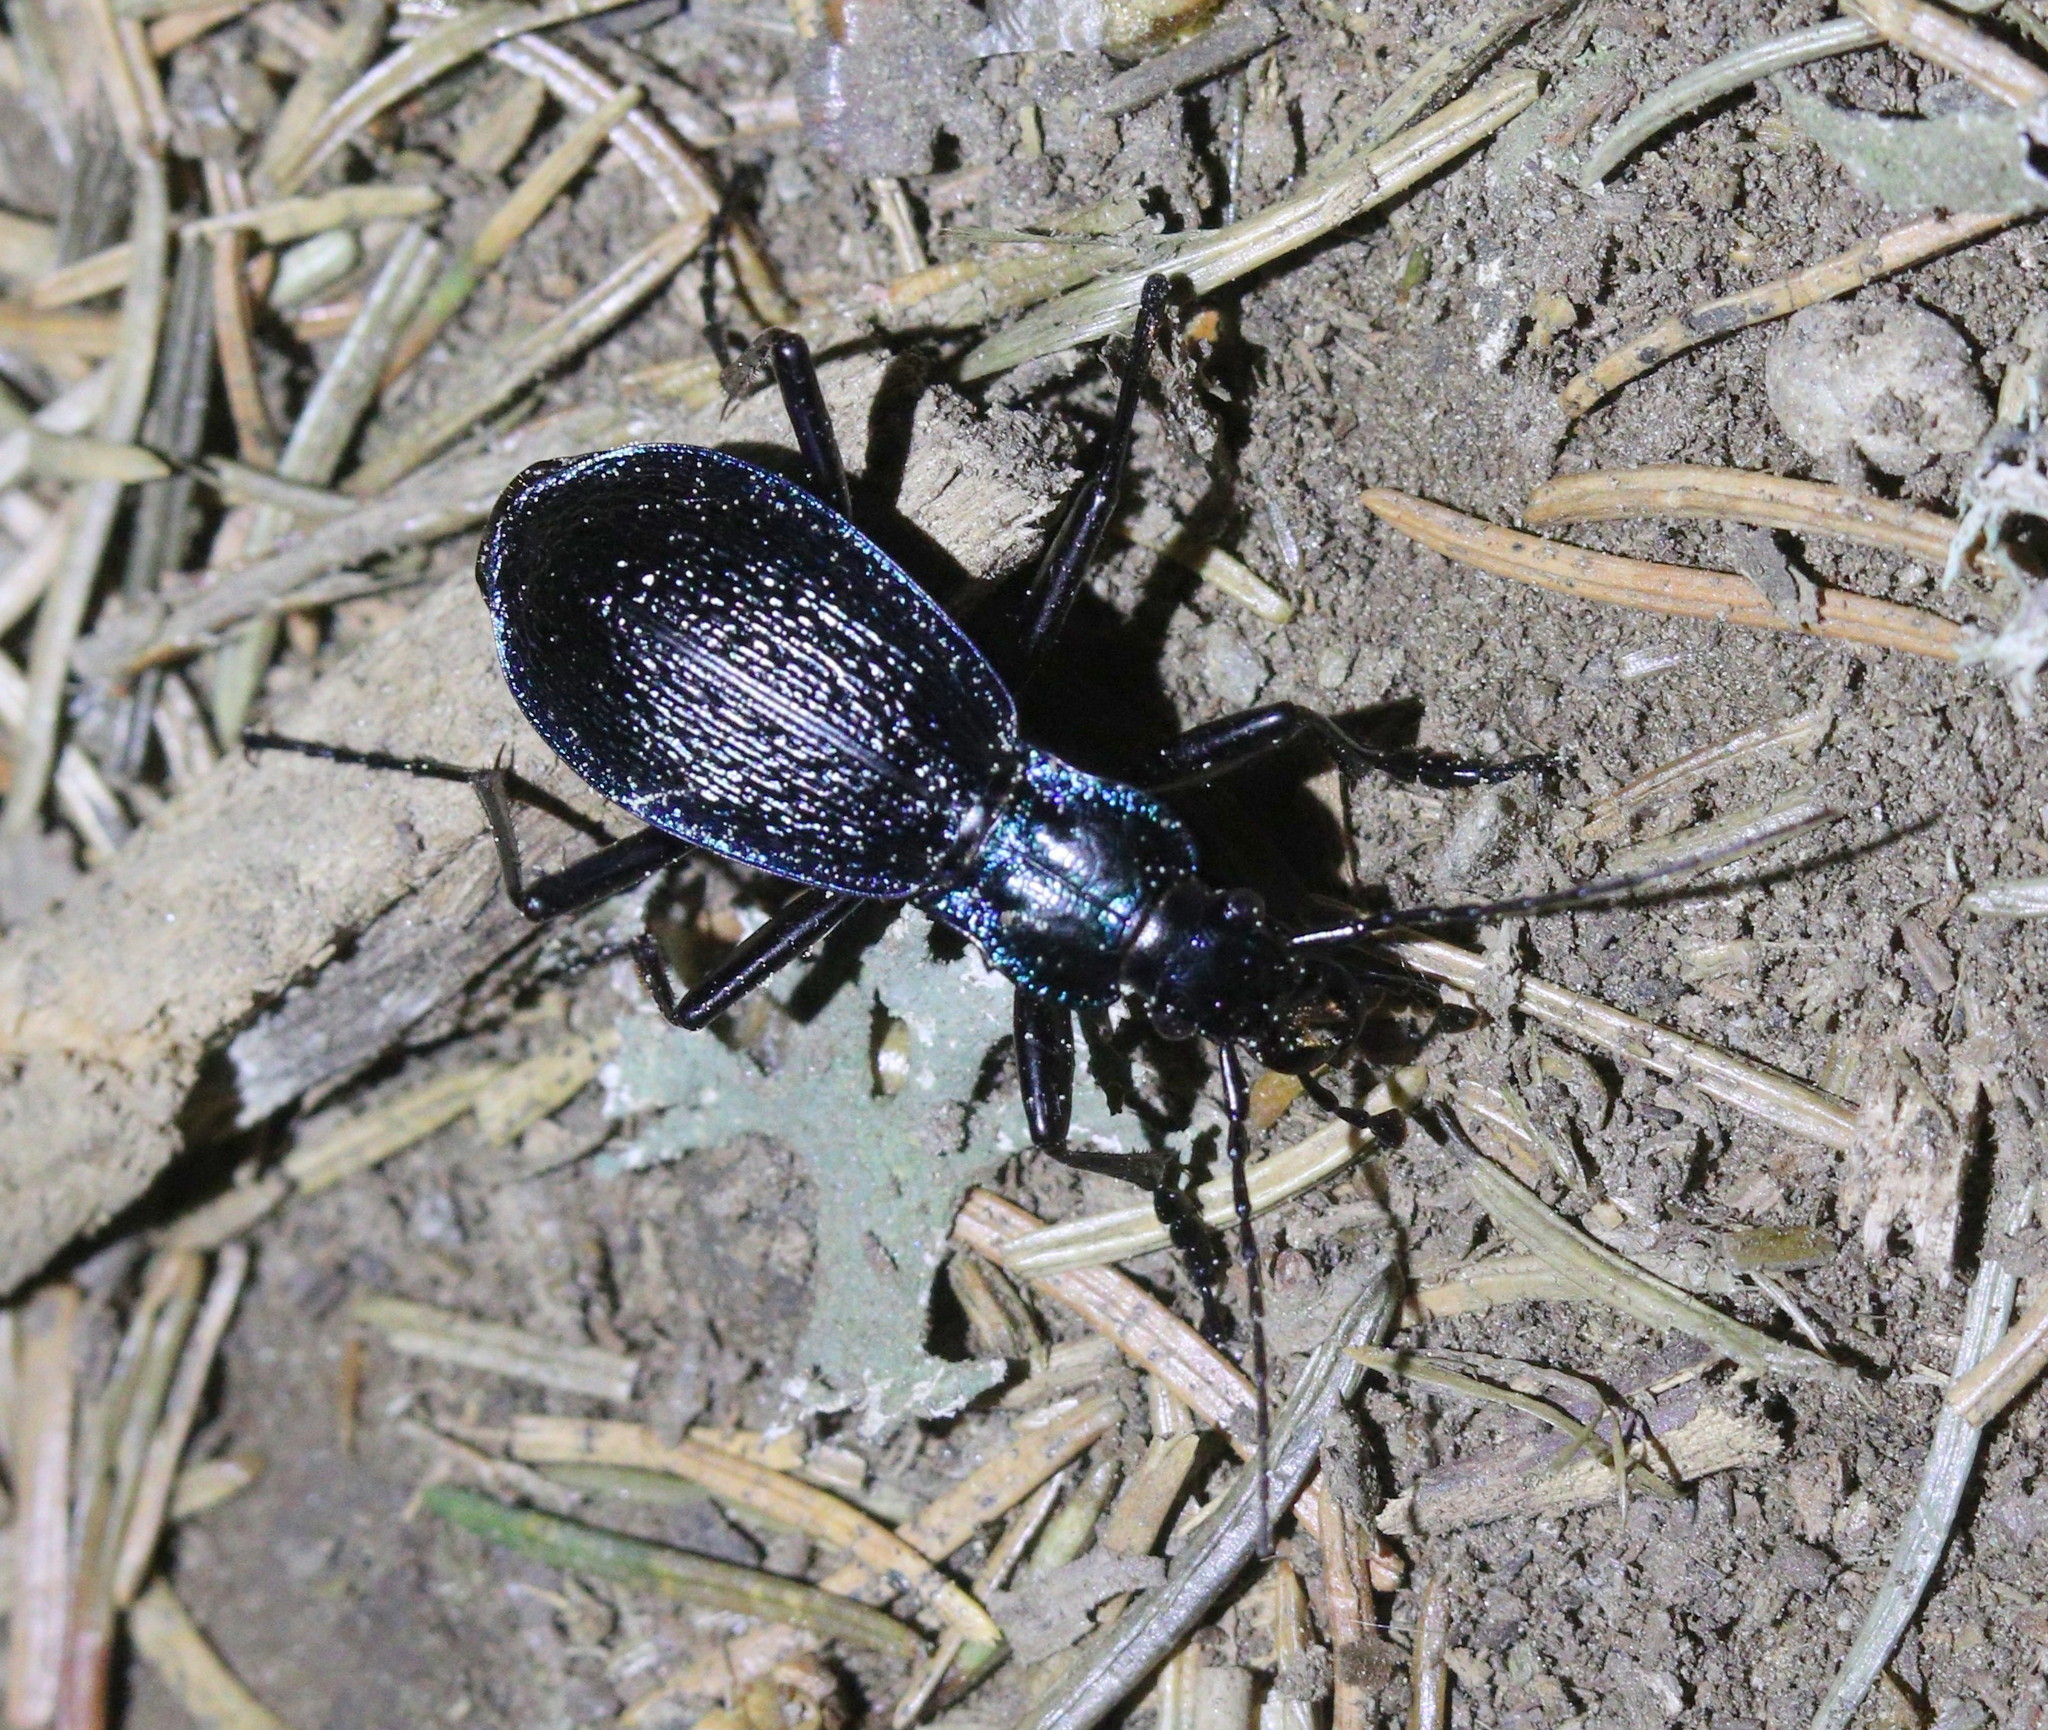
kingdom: Animalia
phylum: Arthropoda
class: Insecta
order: Coleoptera
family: Carabidae
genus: Carabus
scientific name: Carabus intricatus
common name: Blue ground beetle
